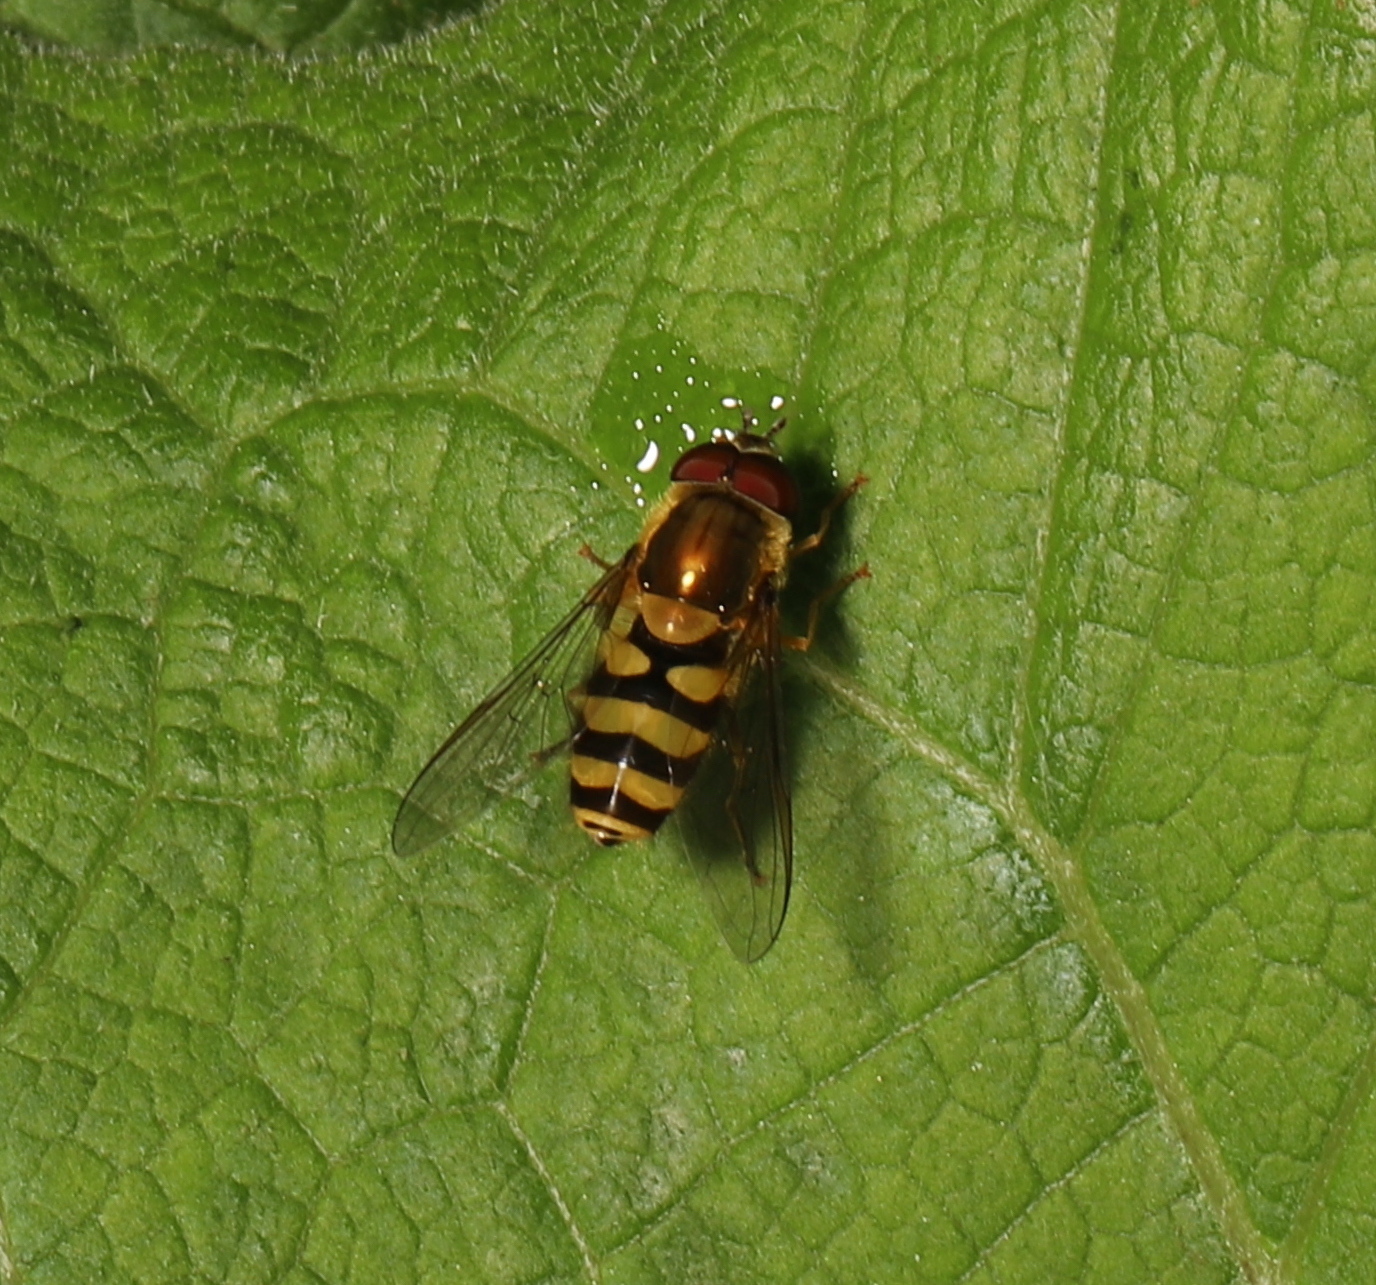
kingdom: Animalia
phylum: Arthropoda
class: Insecta
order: Diptera
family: Syrphidae
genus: Syrphus
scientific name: Syrphus
